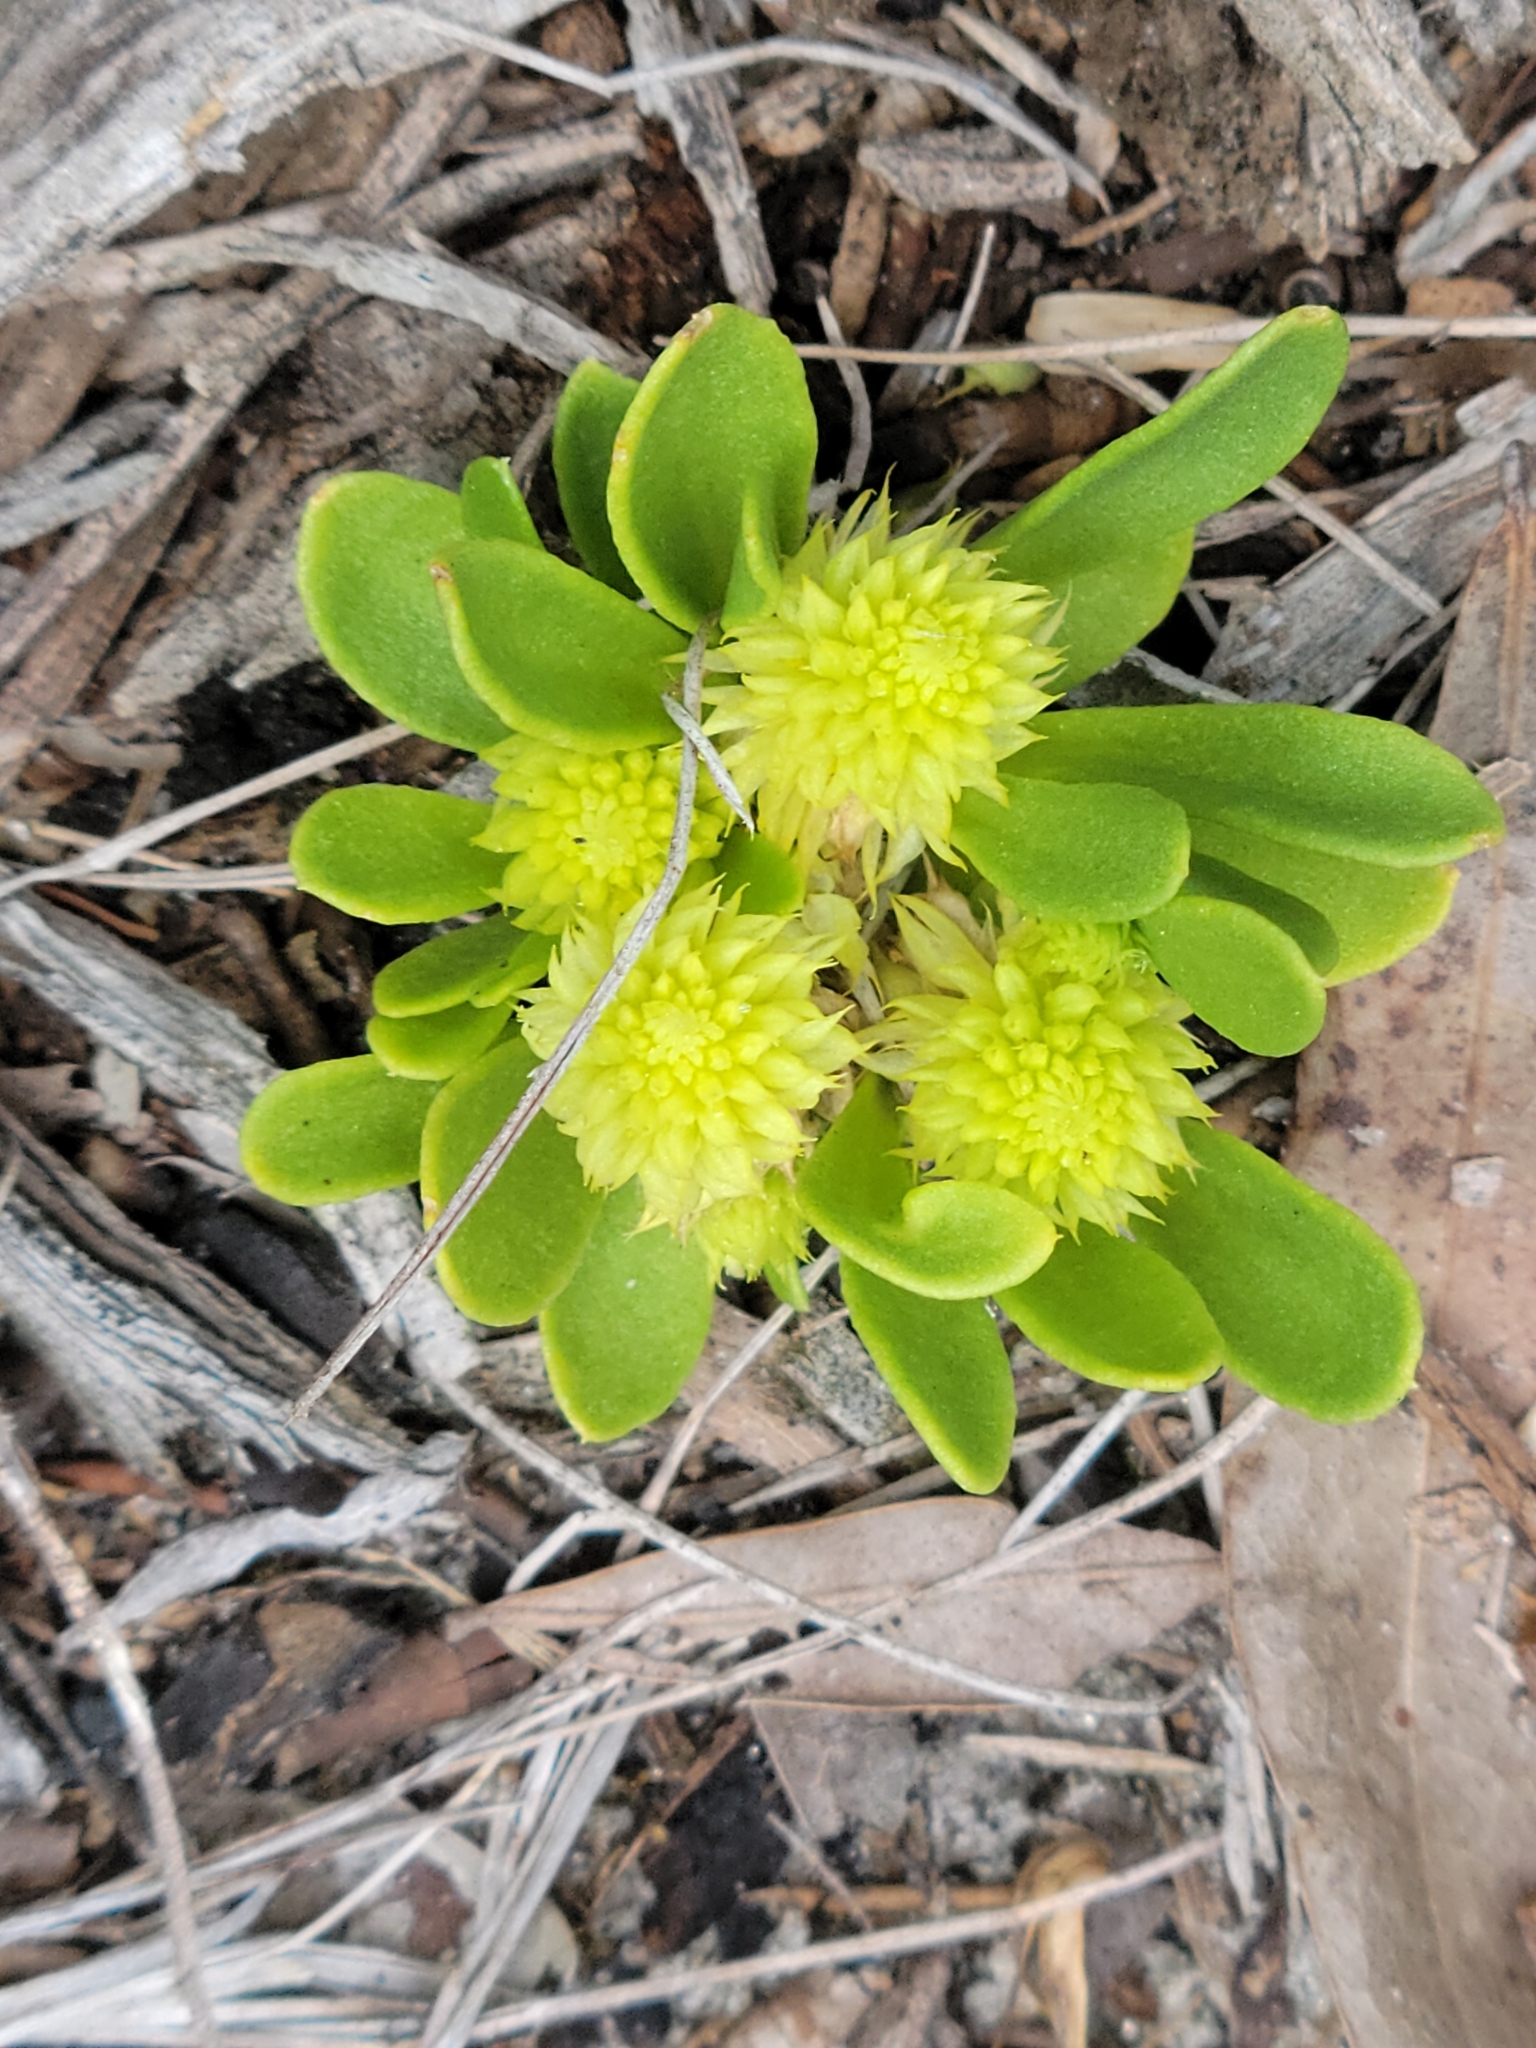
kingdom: Plantae
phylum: Tracheophyta
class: Magnoliopsida
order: Fabales
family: Polygalaceae
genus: Polygala
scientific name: Polygala nana
